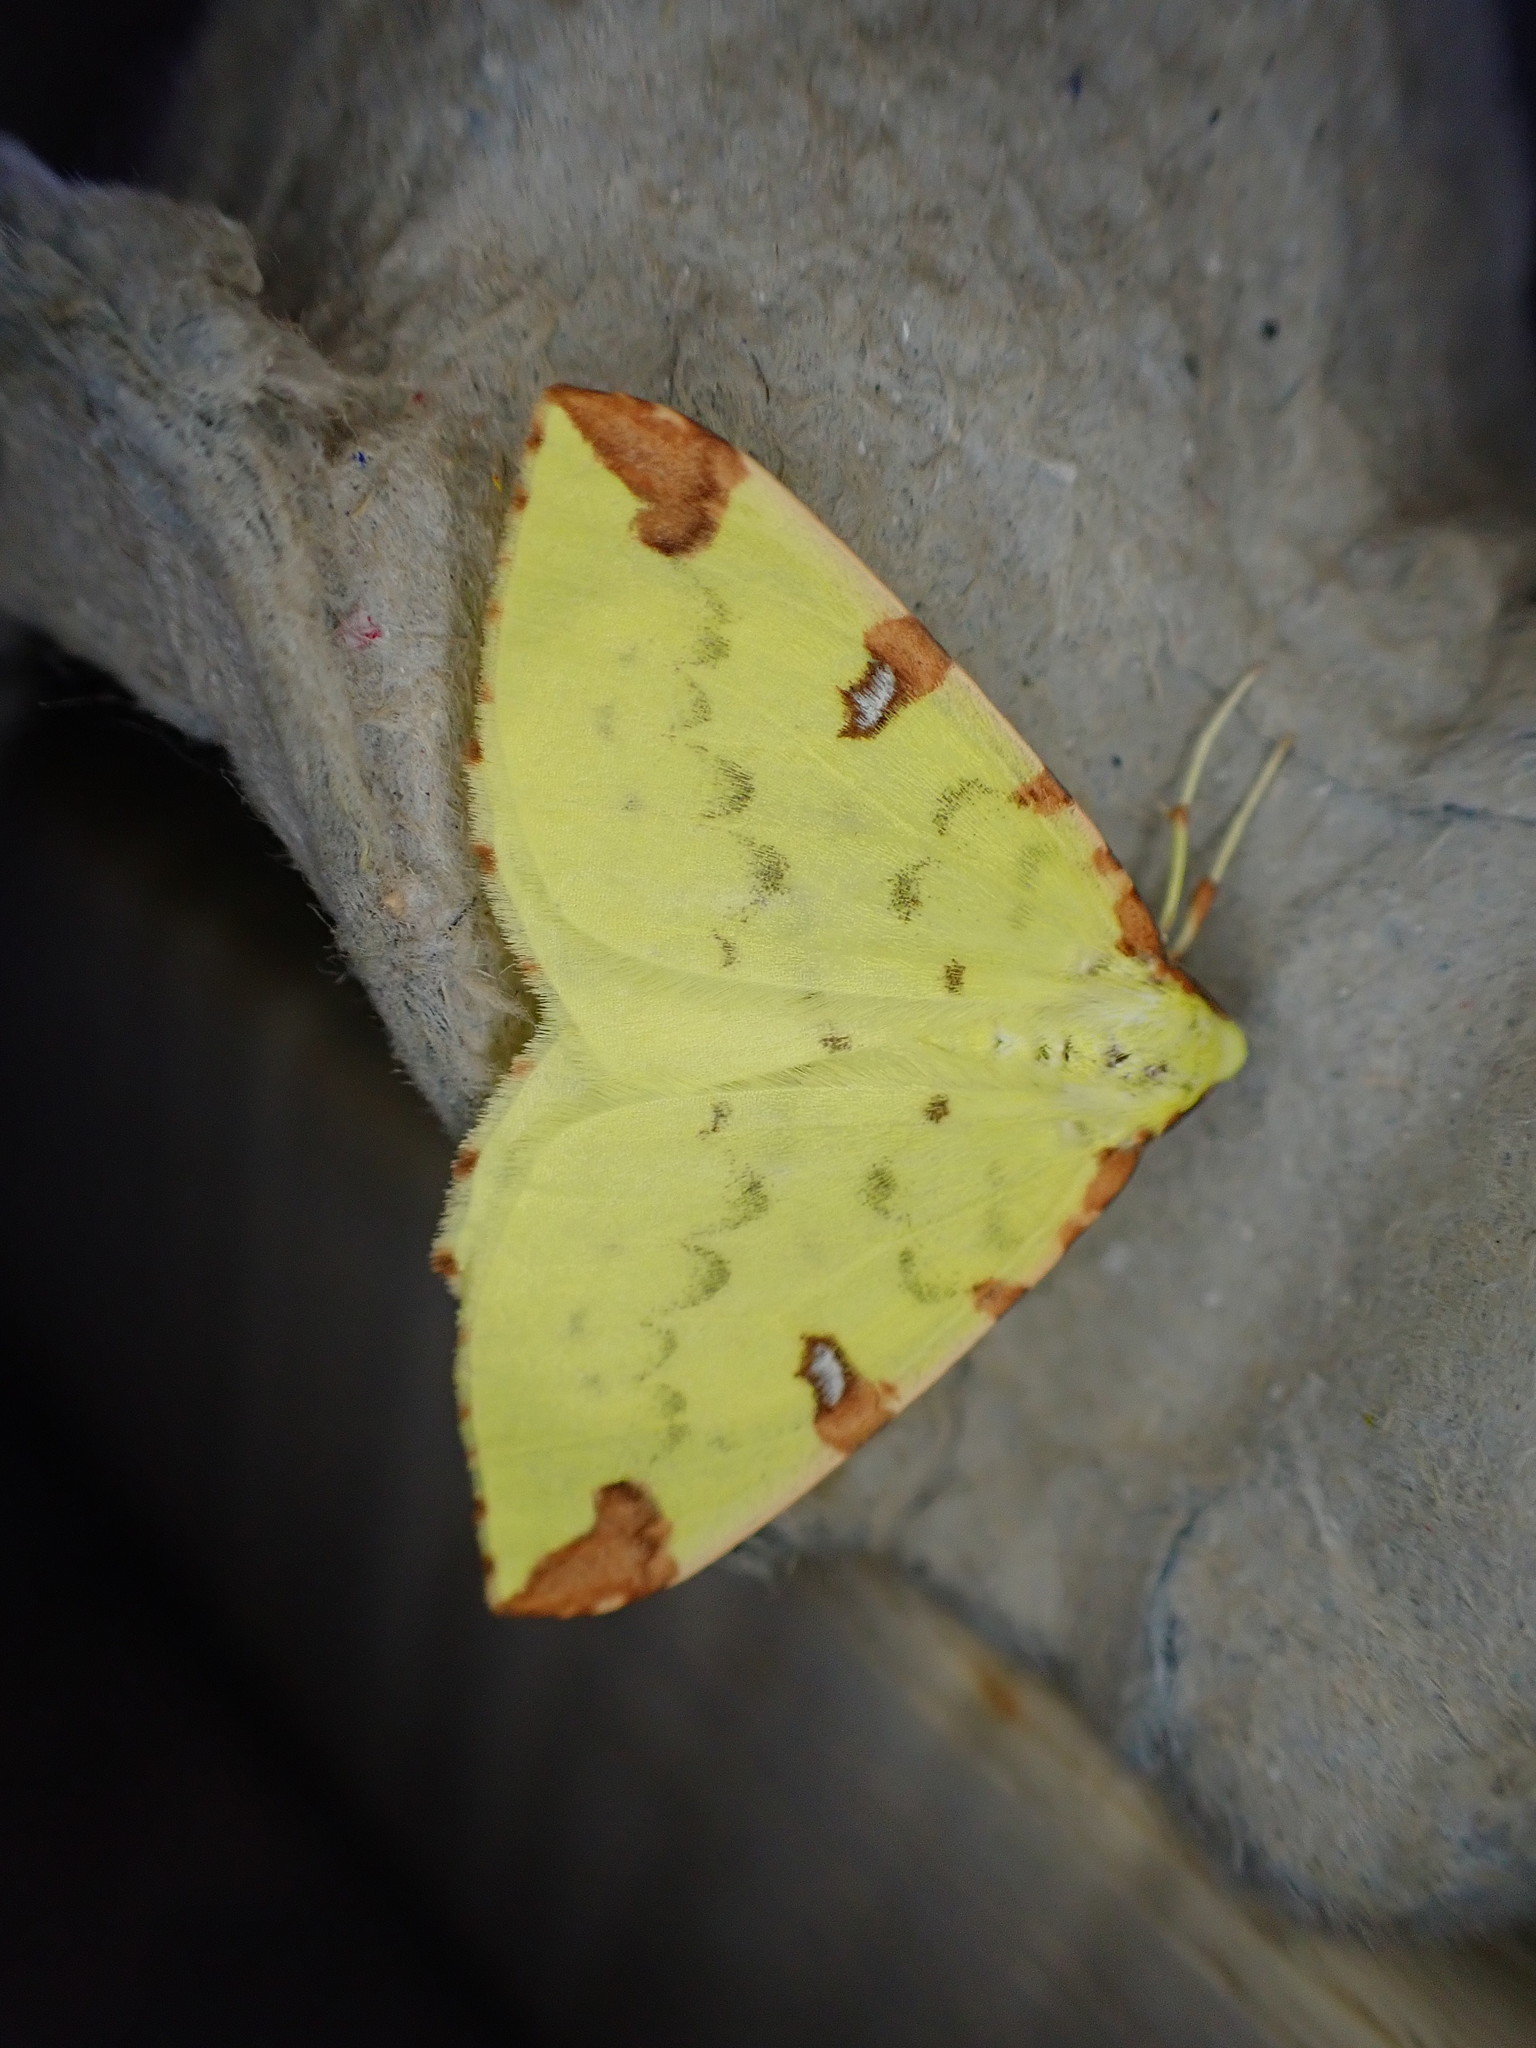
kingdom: Animalia
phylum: Arthropoda
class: Insecta
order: Lepidoptera
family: Geometridae
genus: Opisthograptis
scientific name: Opisthograptis luteolata
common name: Brimstone moth
